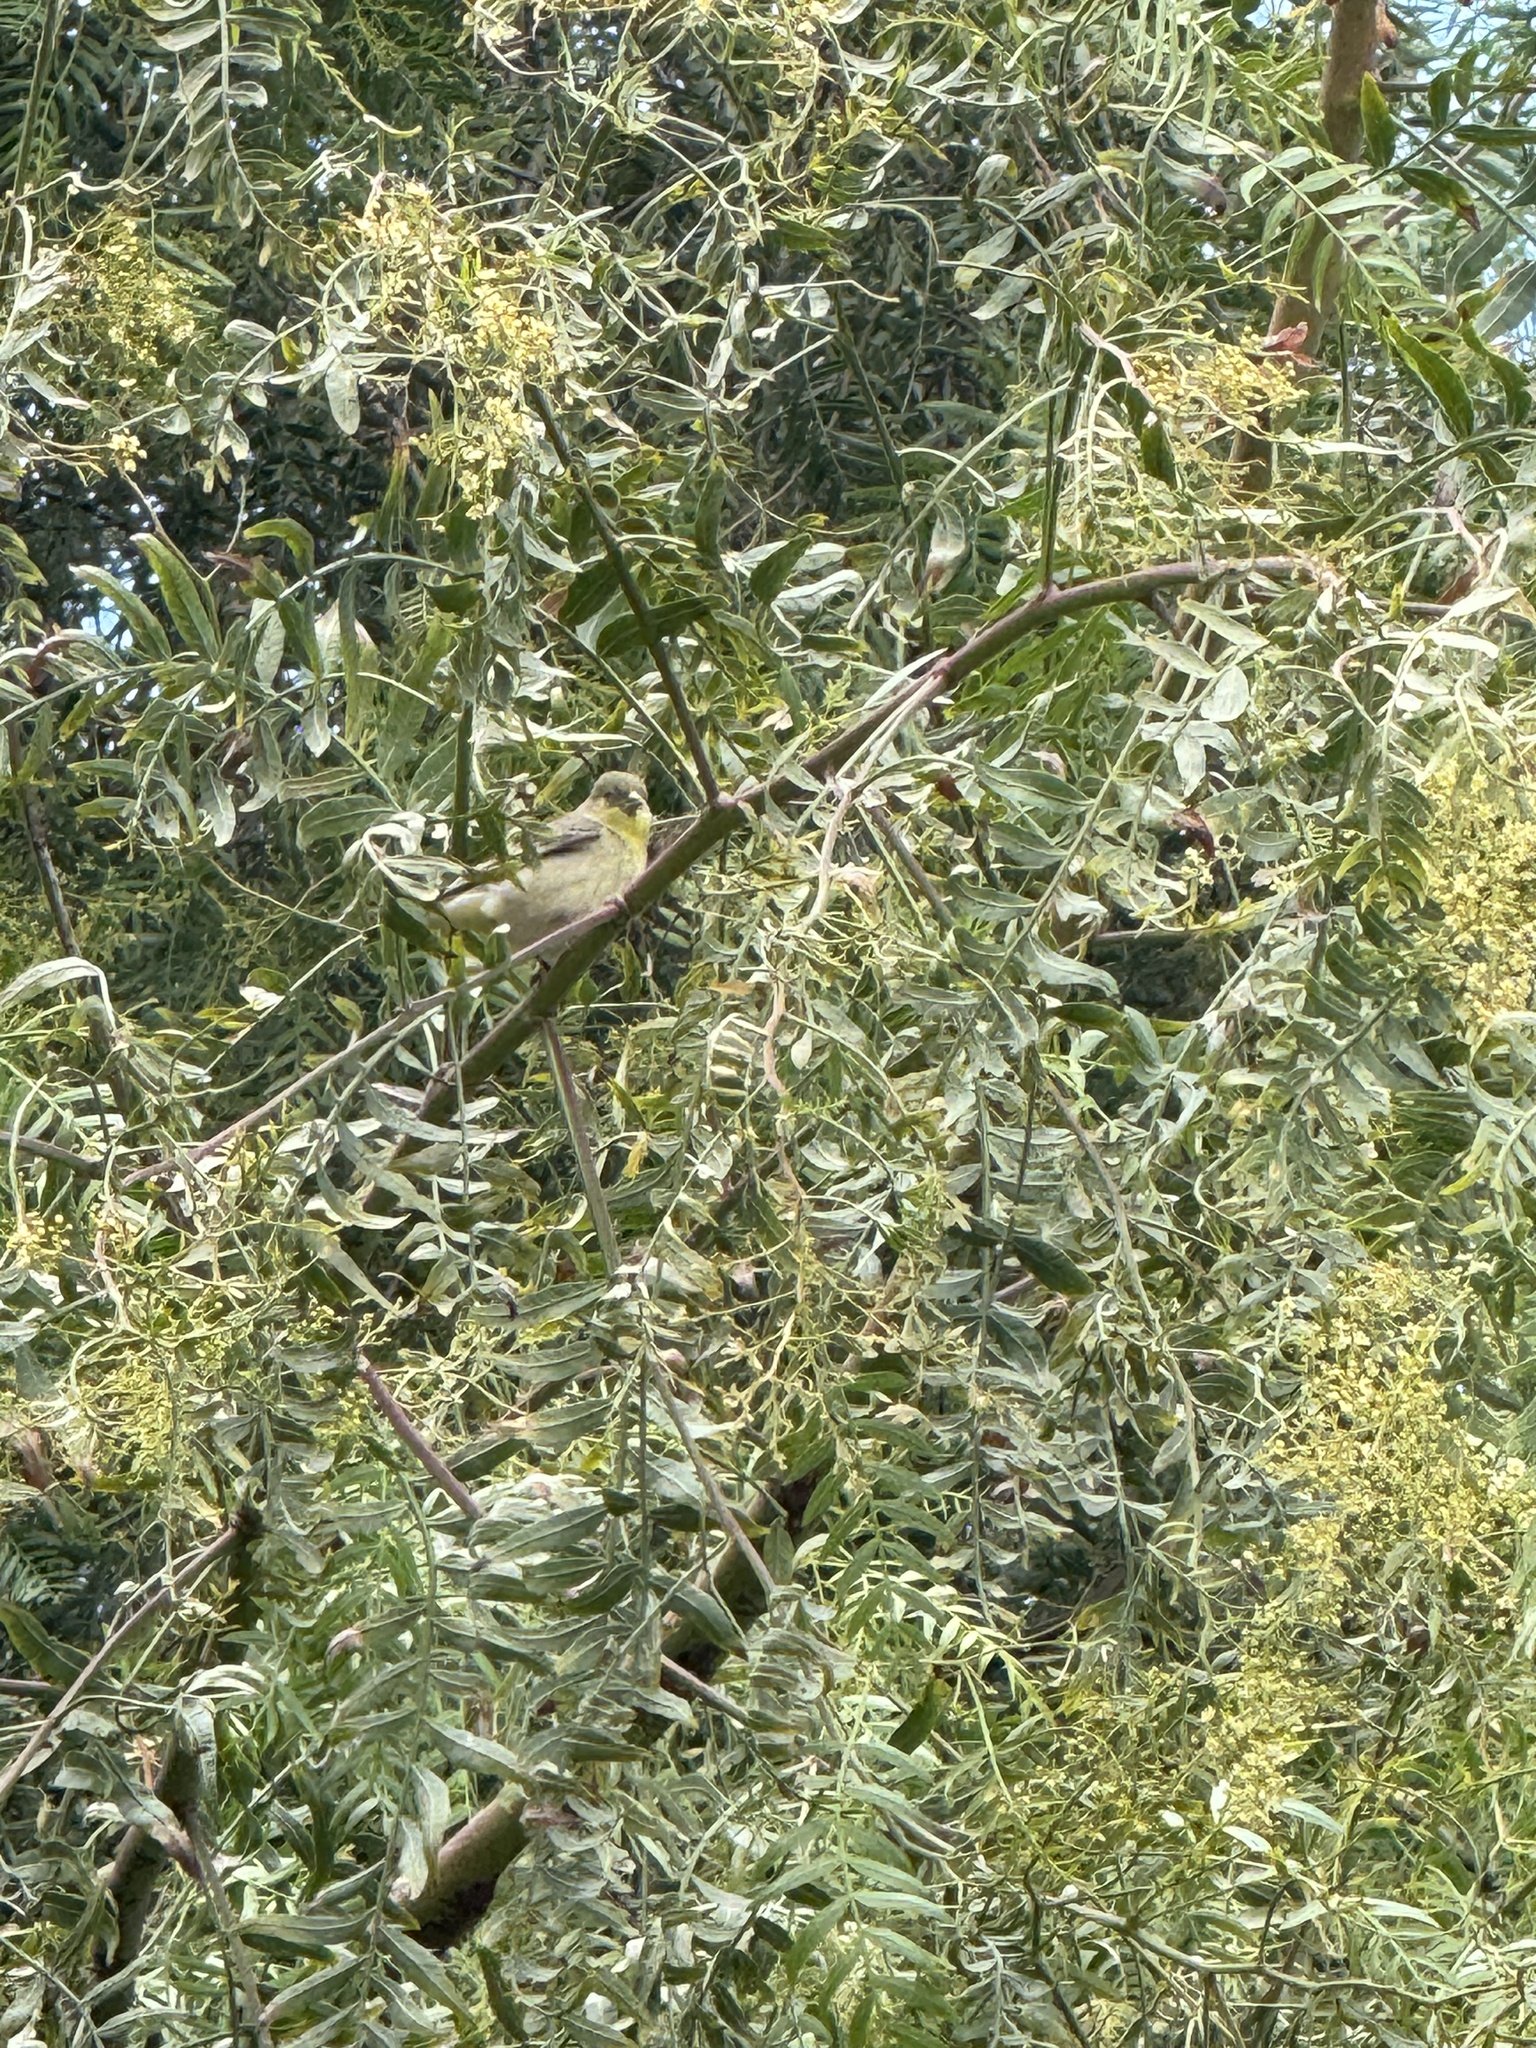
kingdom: Animalia
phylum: Chordata
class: Aves
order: Passeriformes
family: Fringillidae
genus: Spinus
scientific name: Spinus psaltria
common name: Lesser goldfinch
